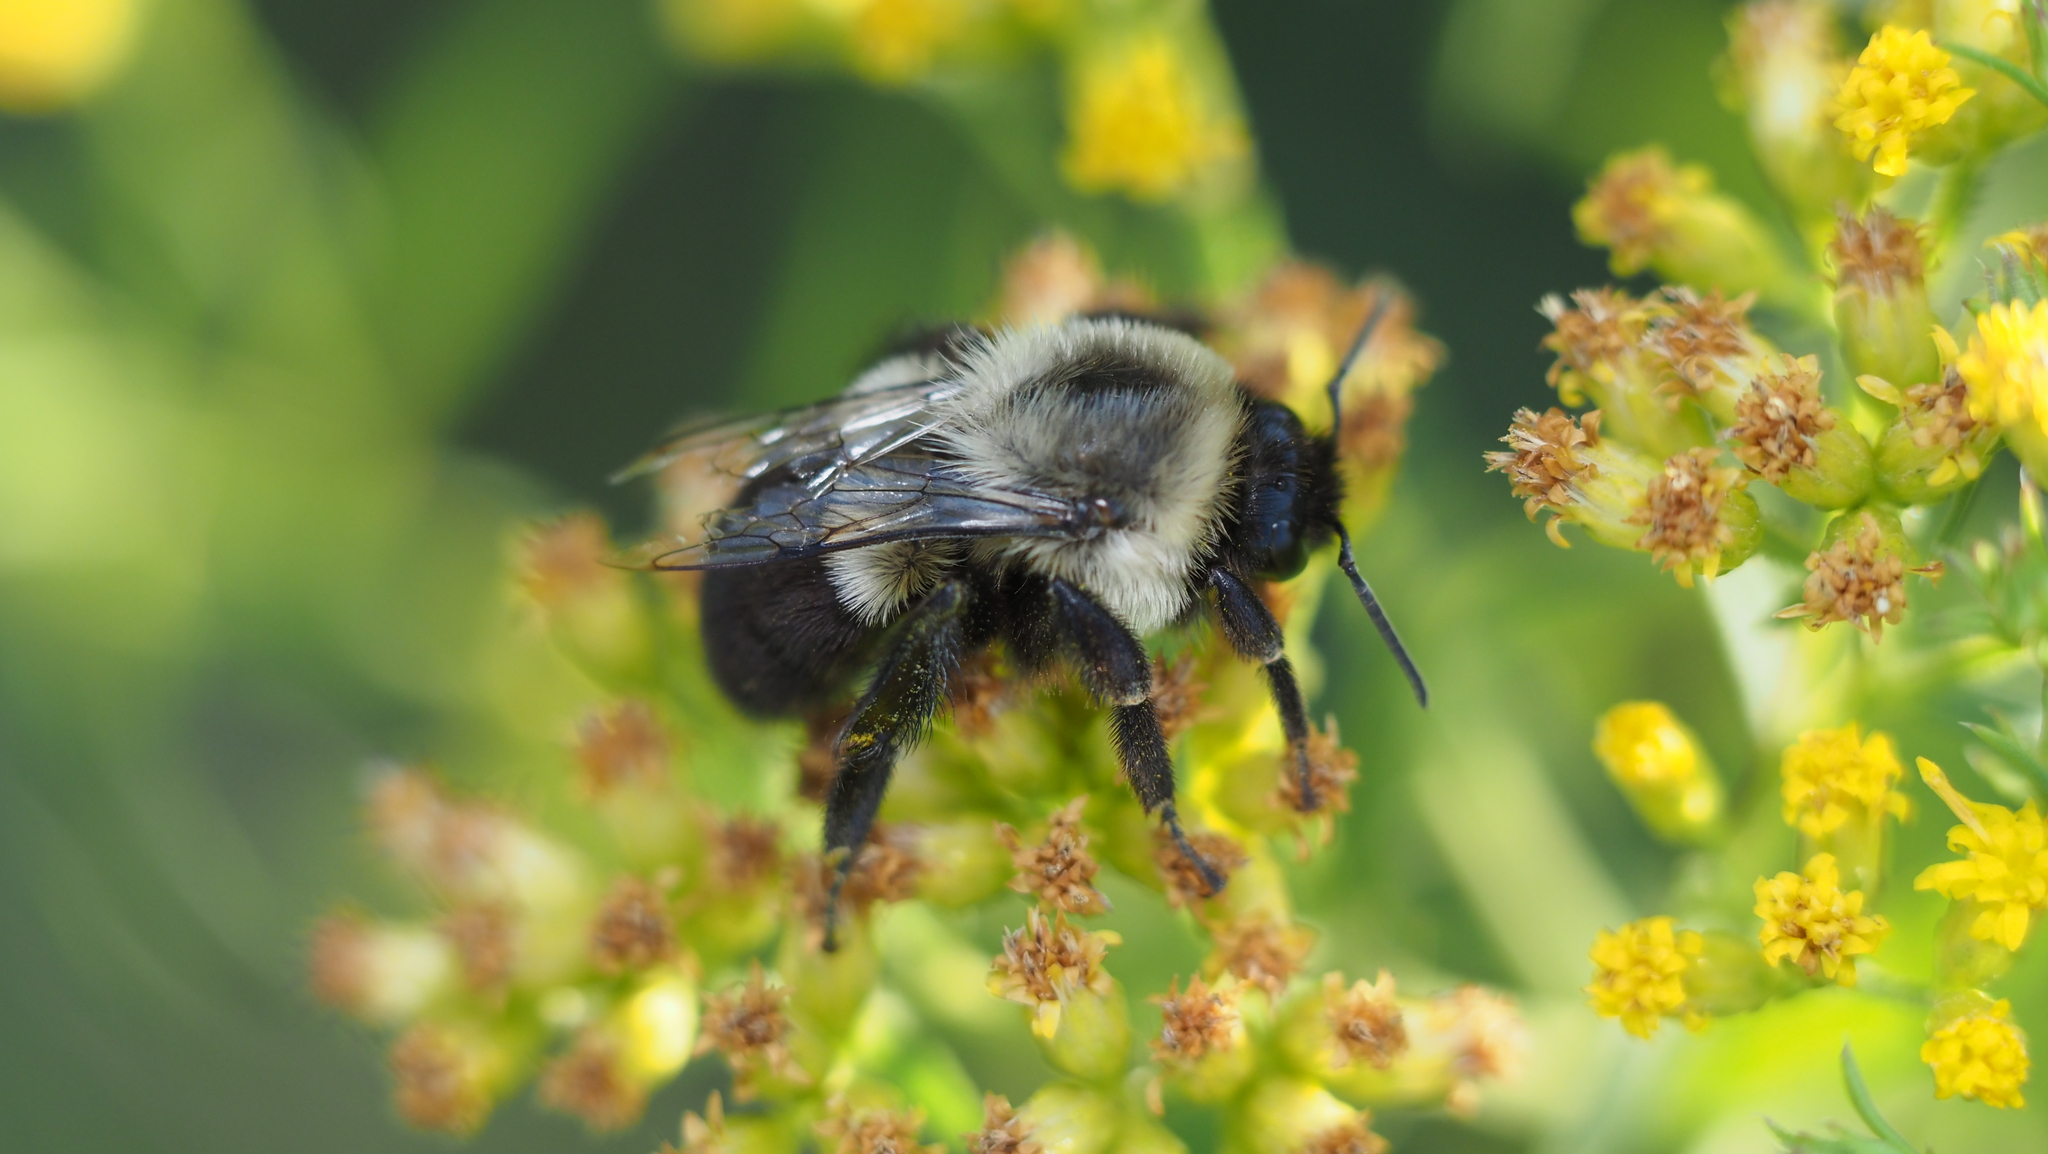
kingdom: Animalia
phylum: Arthropoda
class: Insecta
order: Hymenoptera
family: Apidae
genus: Bombus
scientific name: Bombus impatiens
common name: Common eastern bumble bee
